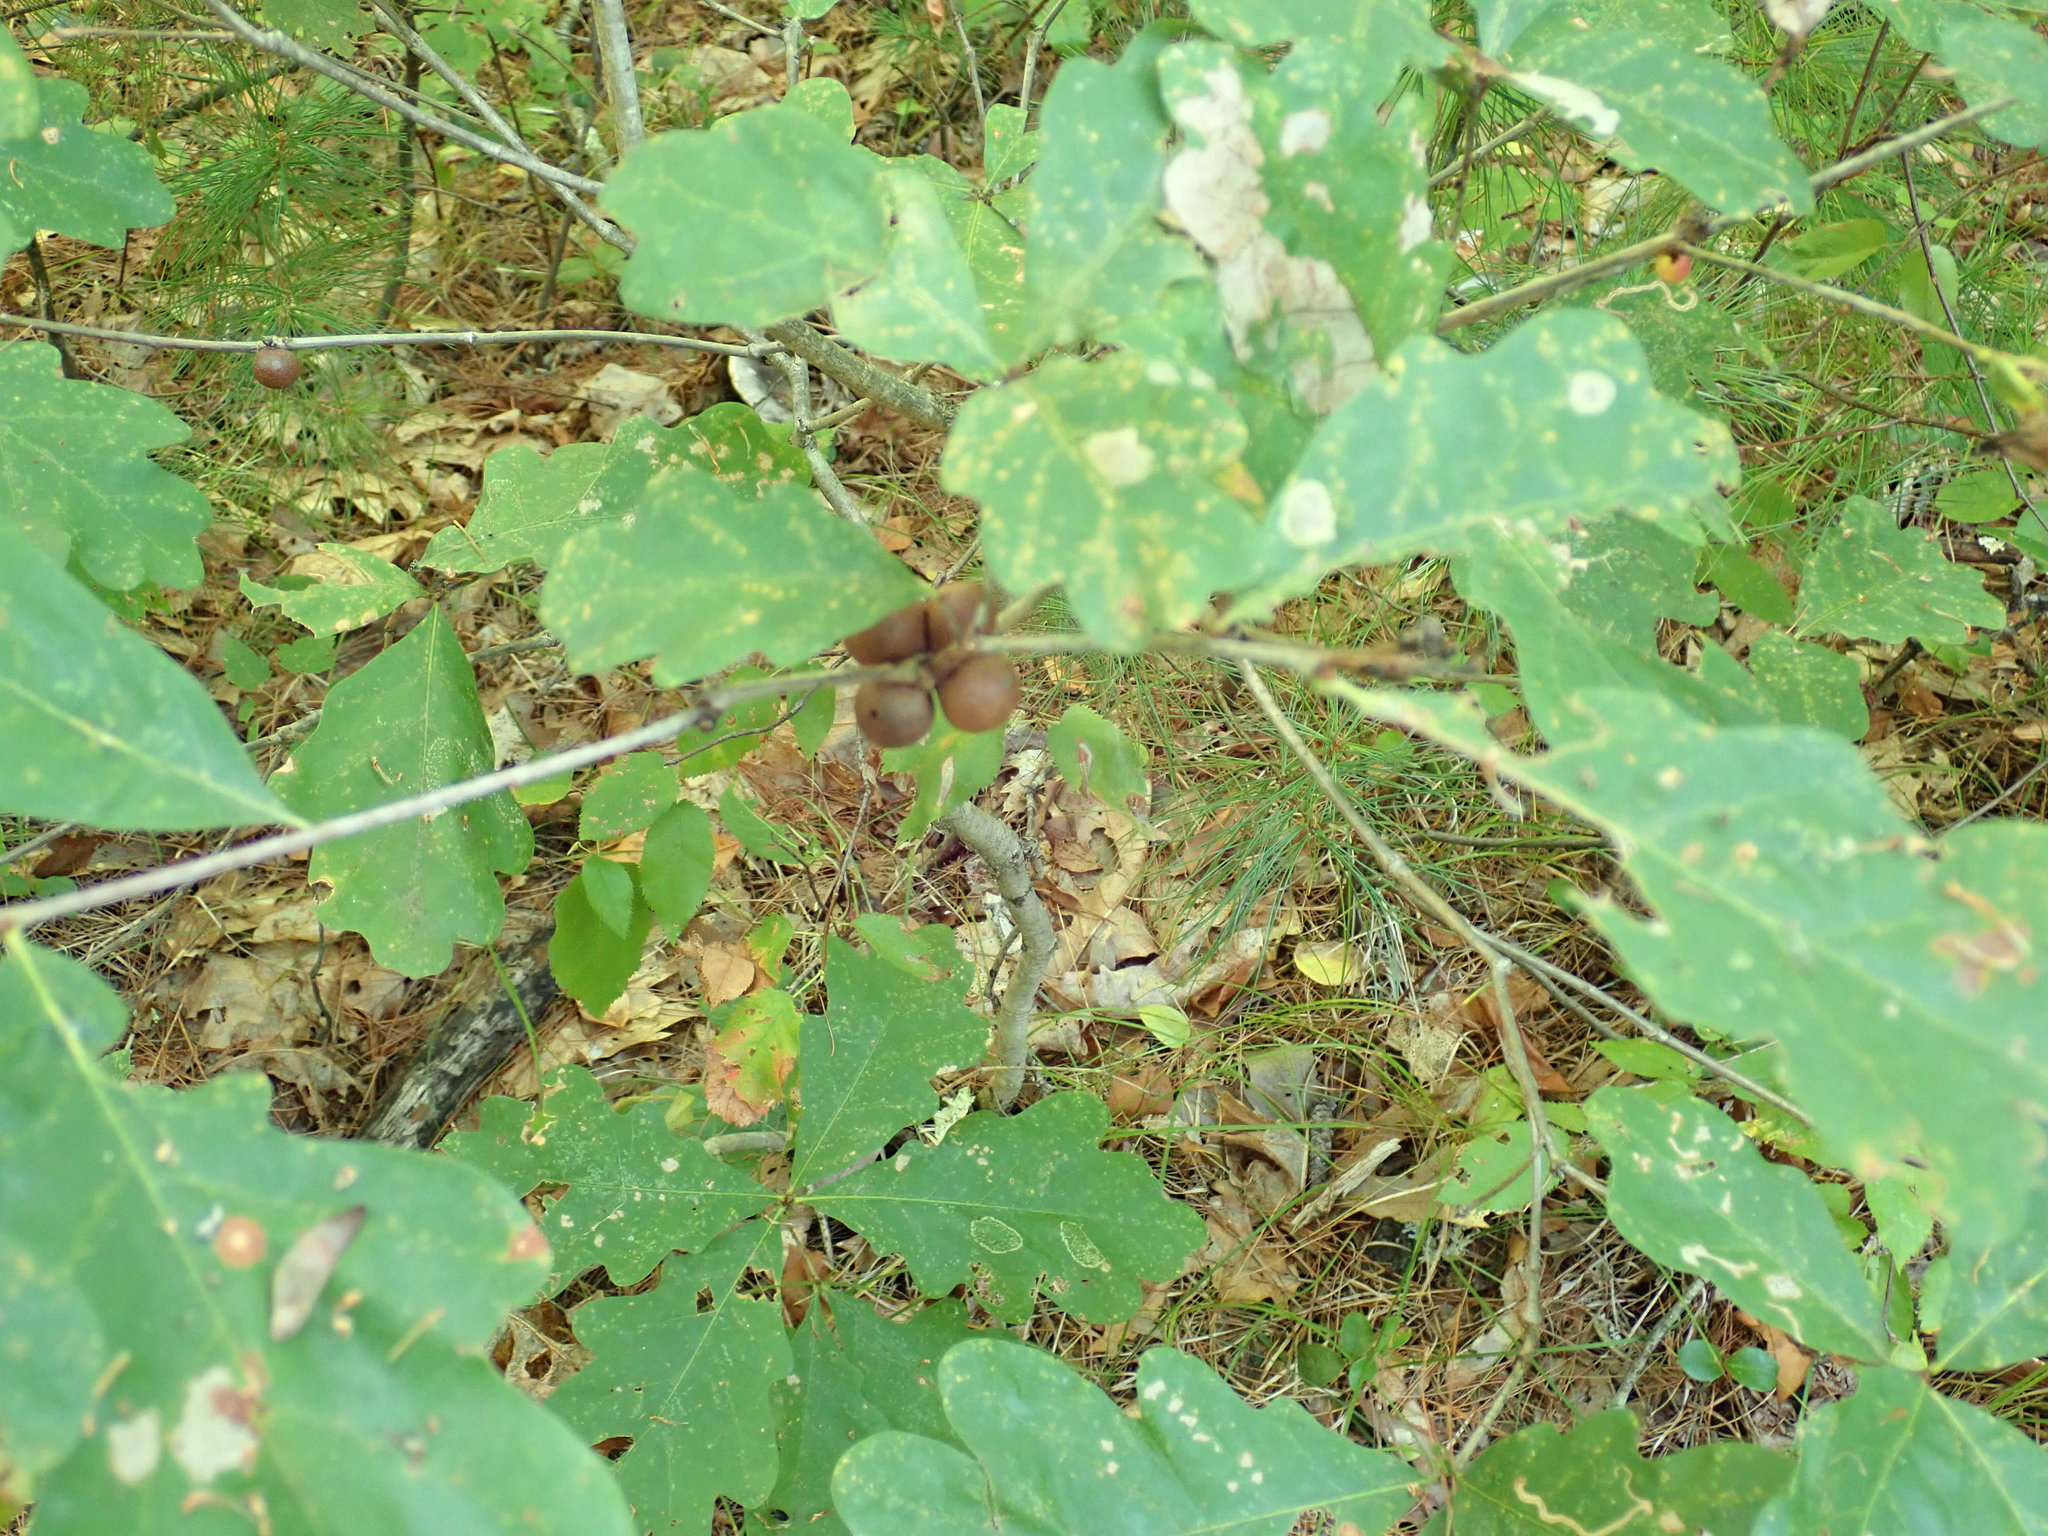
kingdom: Animalia
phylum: Arthropoda
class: Insecta
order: Hymenoptera
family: Cynipidae
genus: Disholcaspis
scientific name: Disholcaspis quercusglobulus
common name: Round bullet gall wasp
